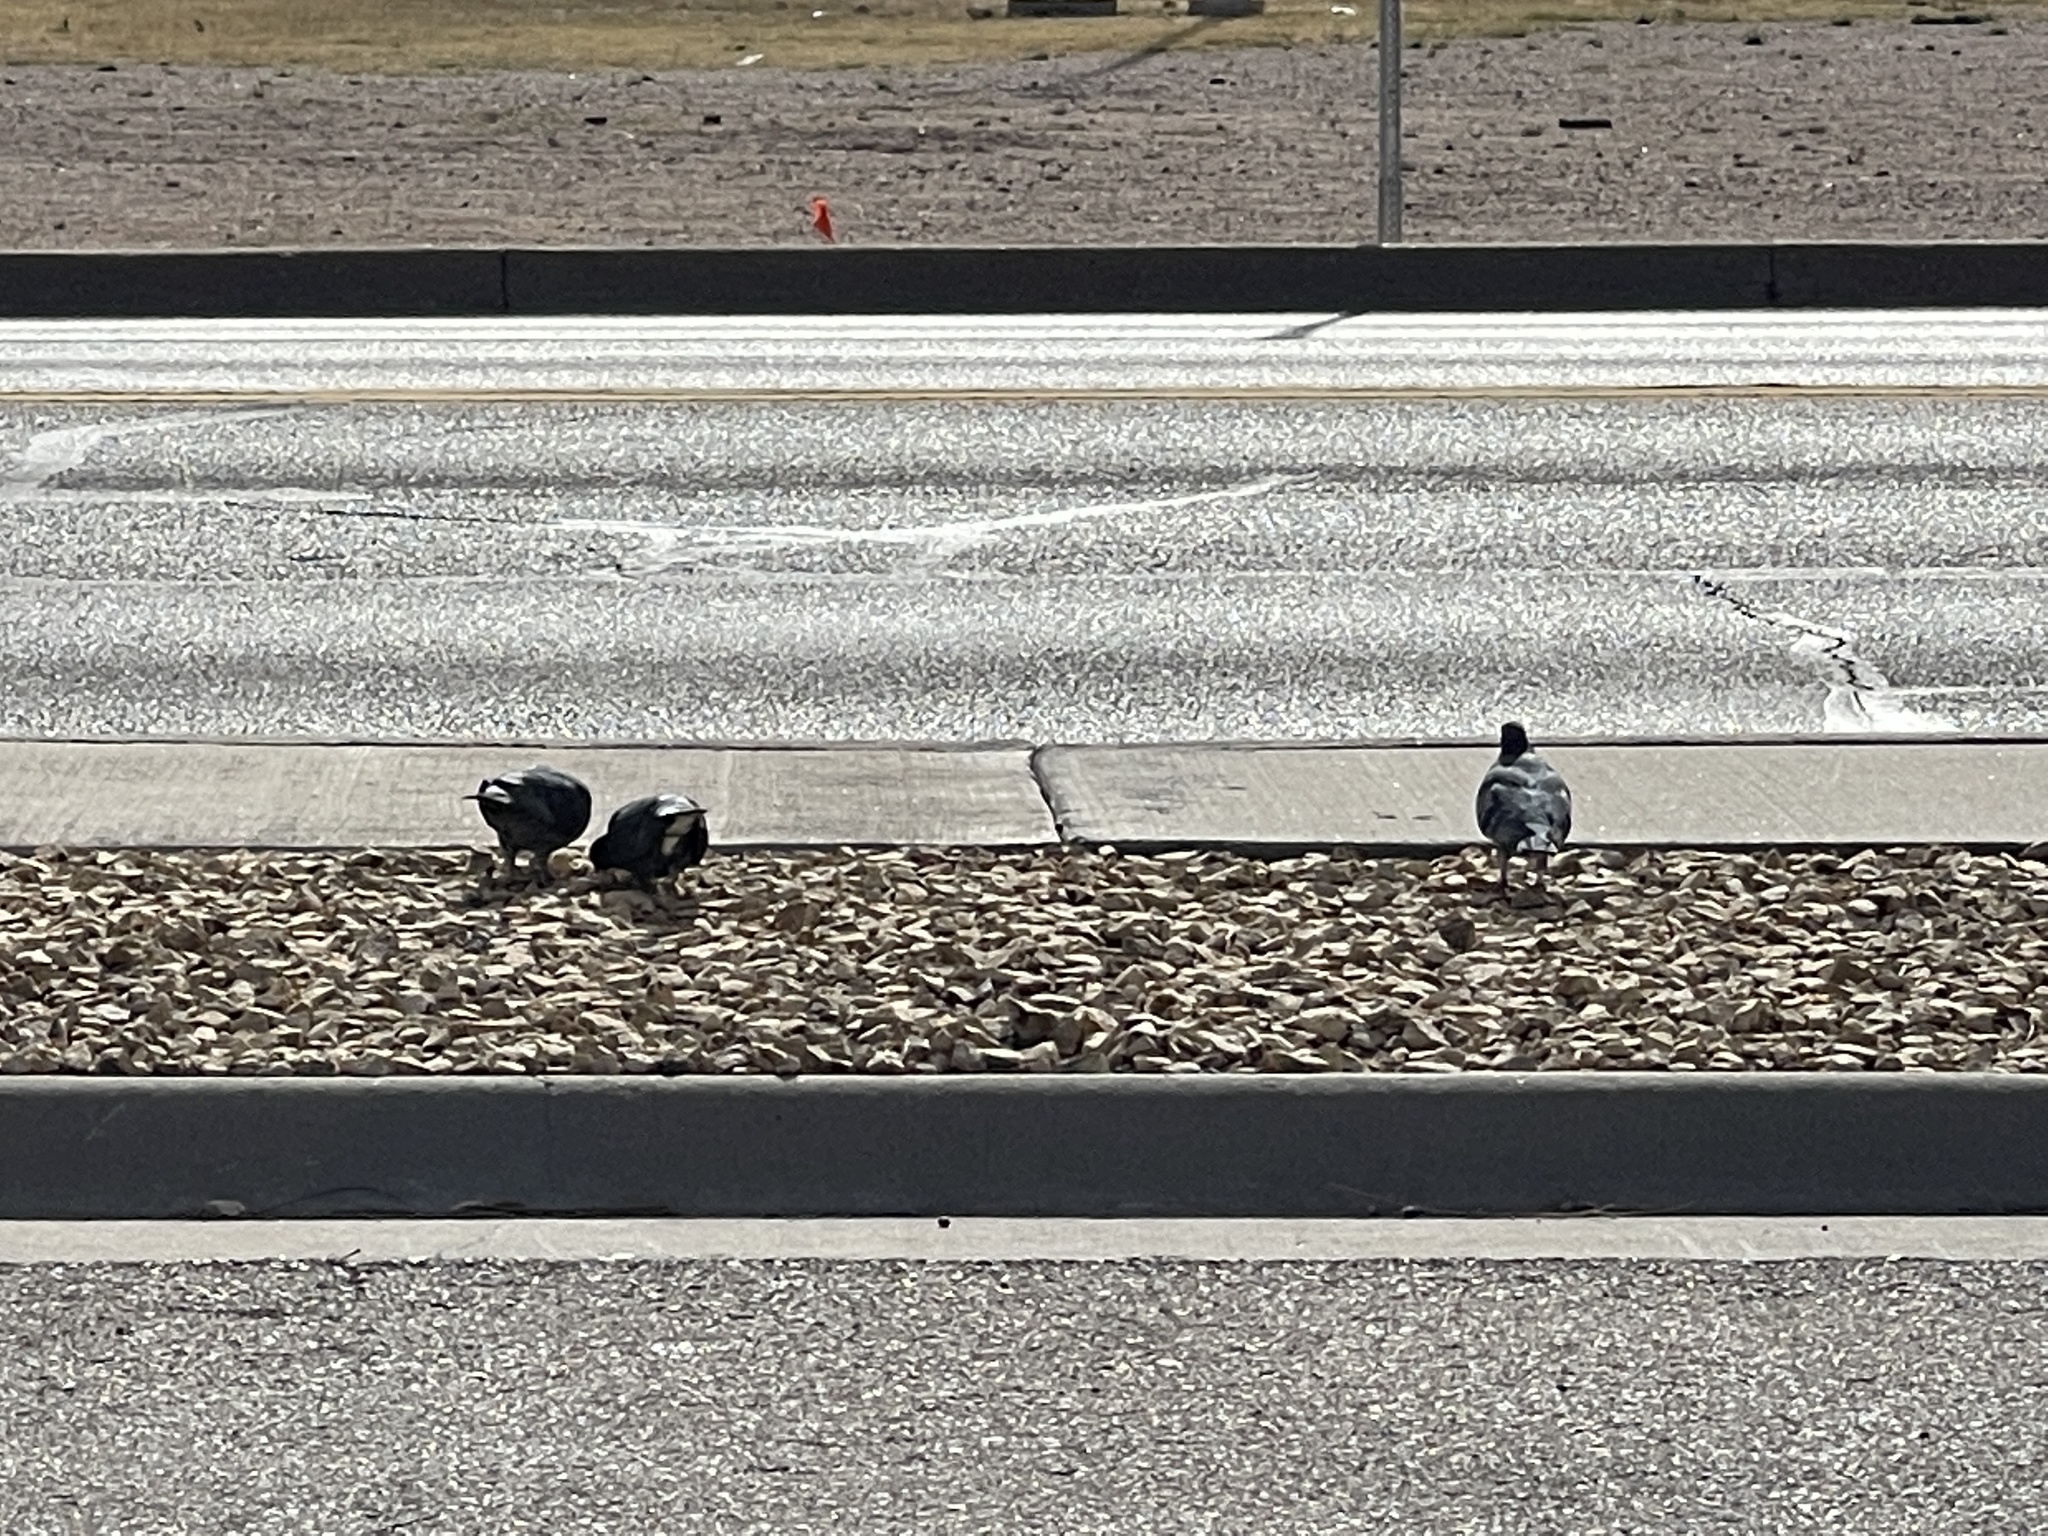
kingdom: Animalia
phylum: Chordata
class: Aves
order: Columbiformes
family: Columbidae
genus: Columba
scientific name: Columba livia
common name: Rock pigeon
